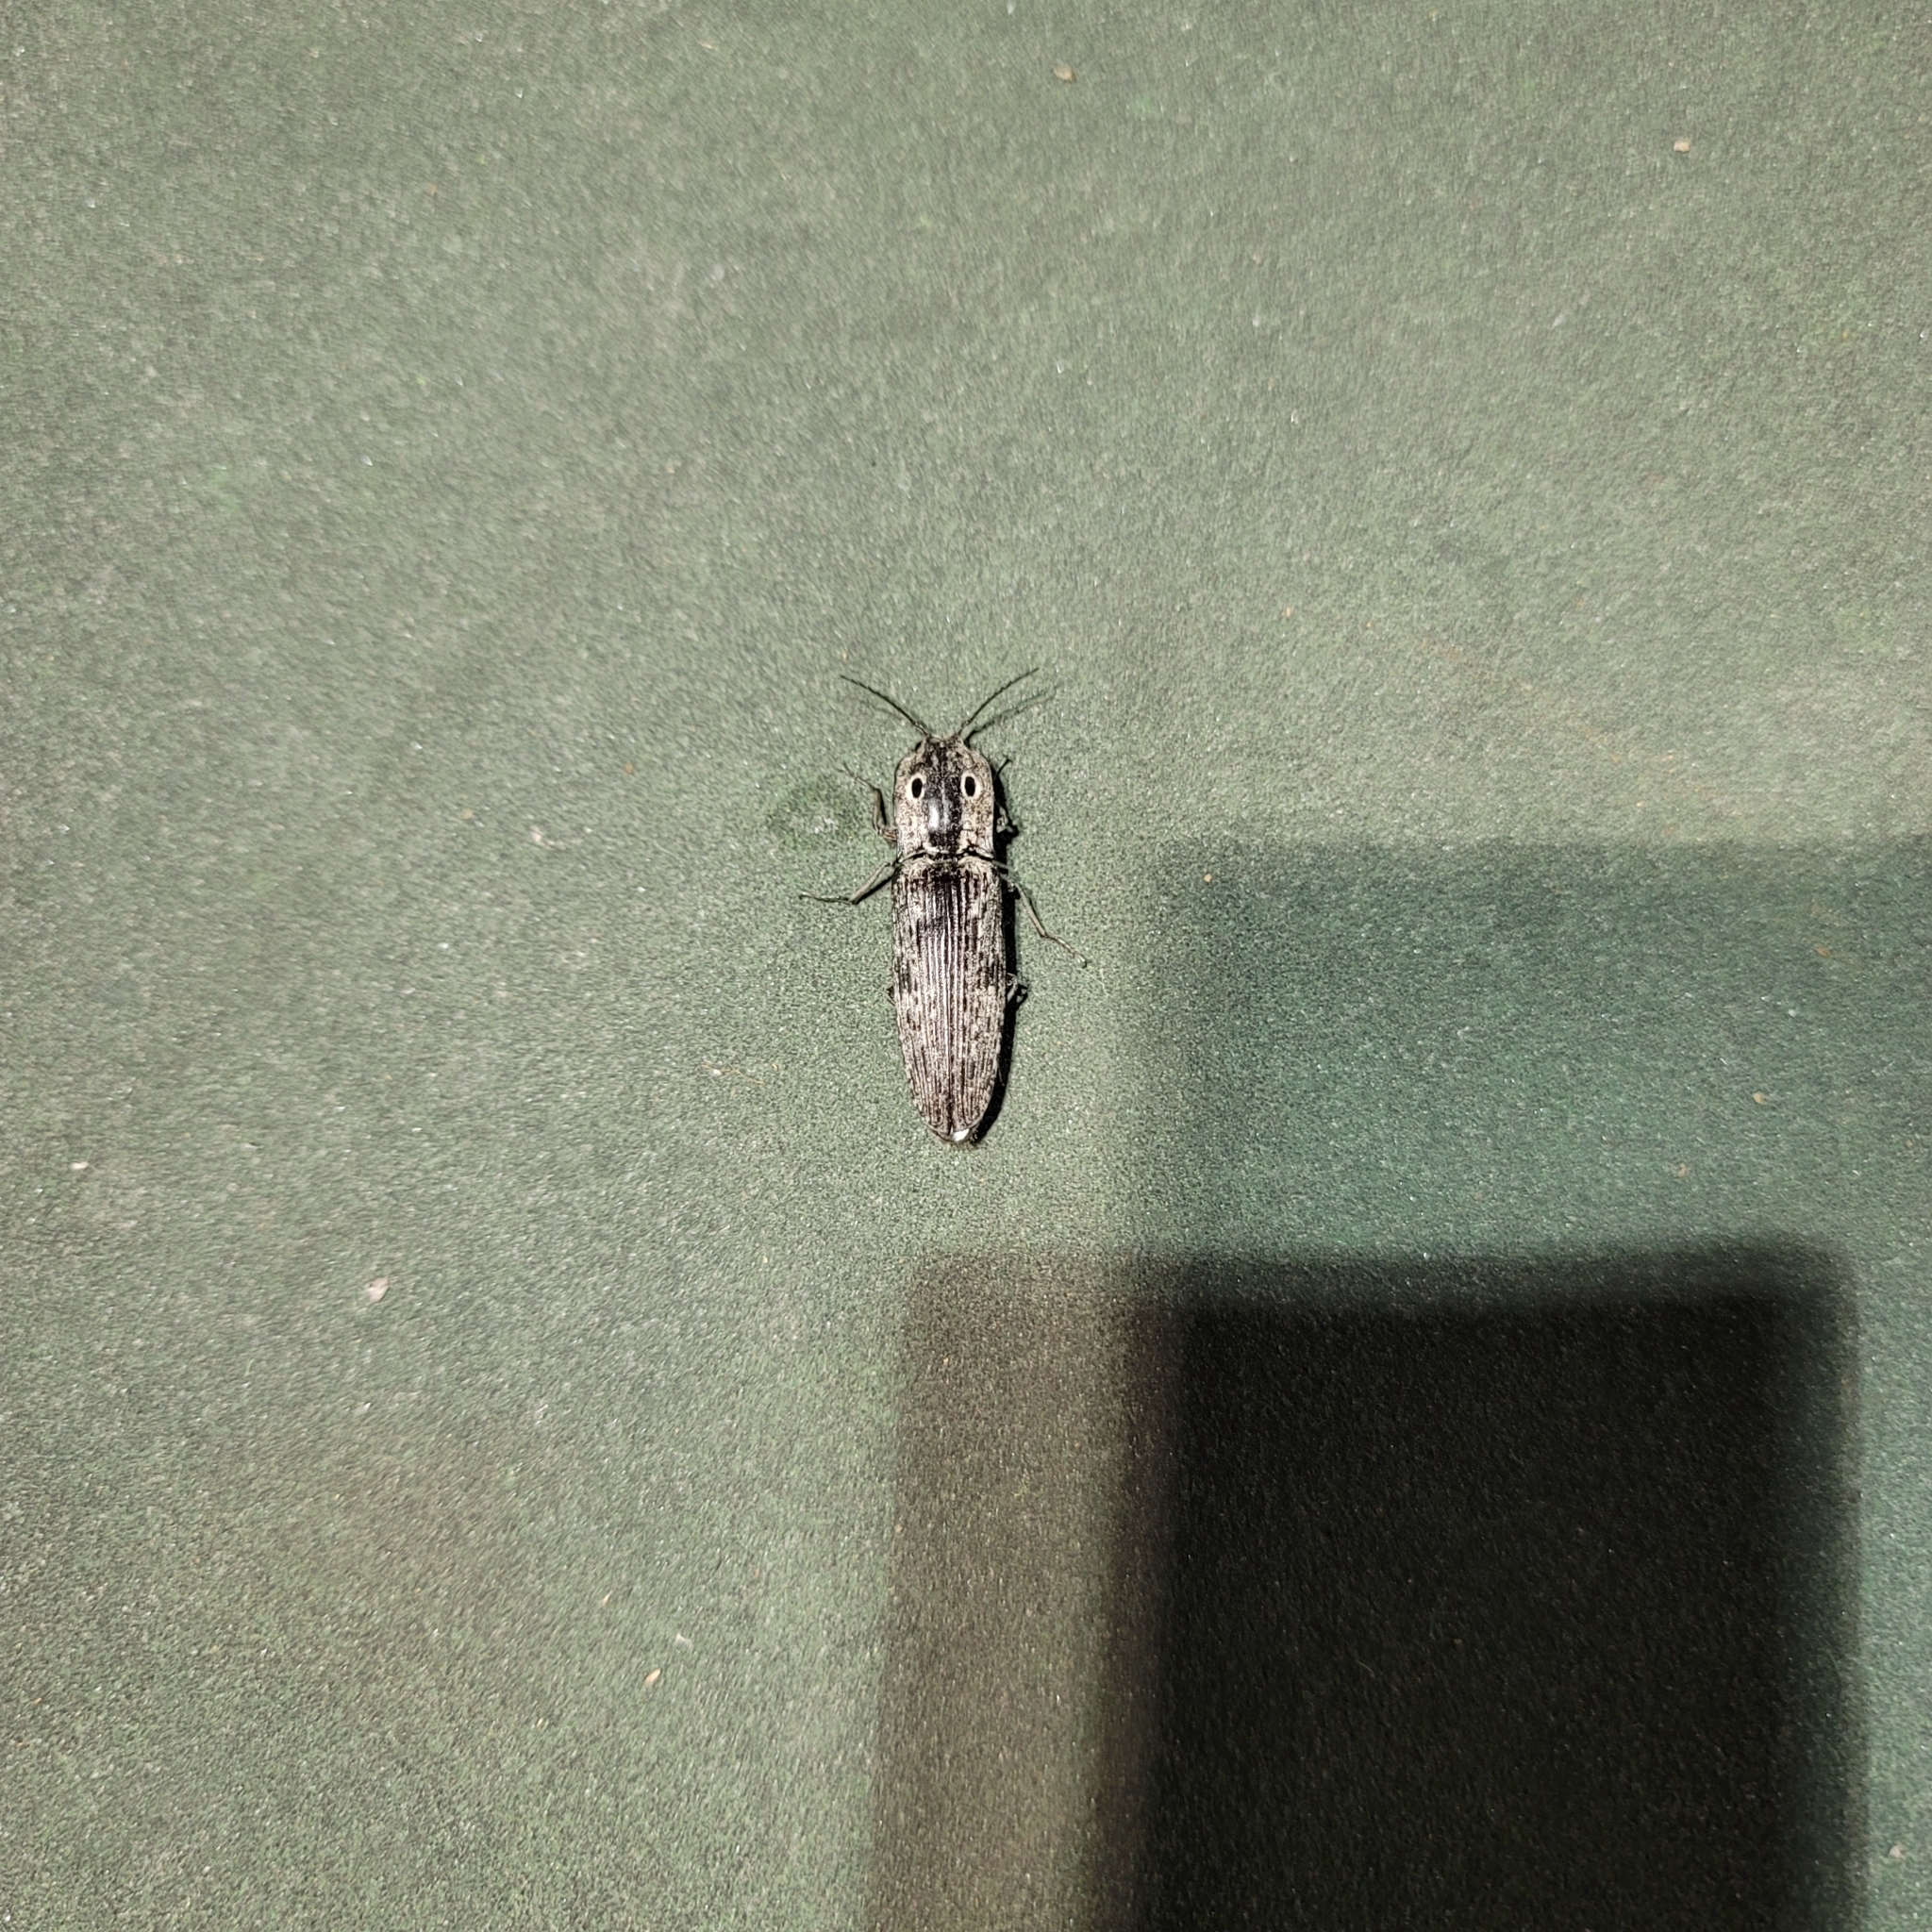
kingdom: Animalia
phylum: Arthropoda
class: Insecta
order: Coleoptera
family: Elateridae
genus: Alaus
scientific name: Alaus myops
